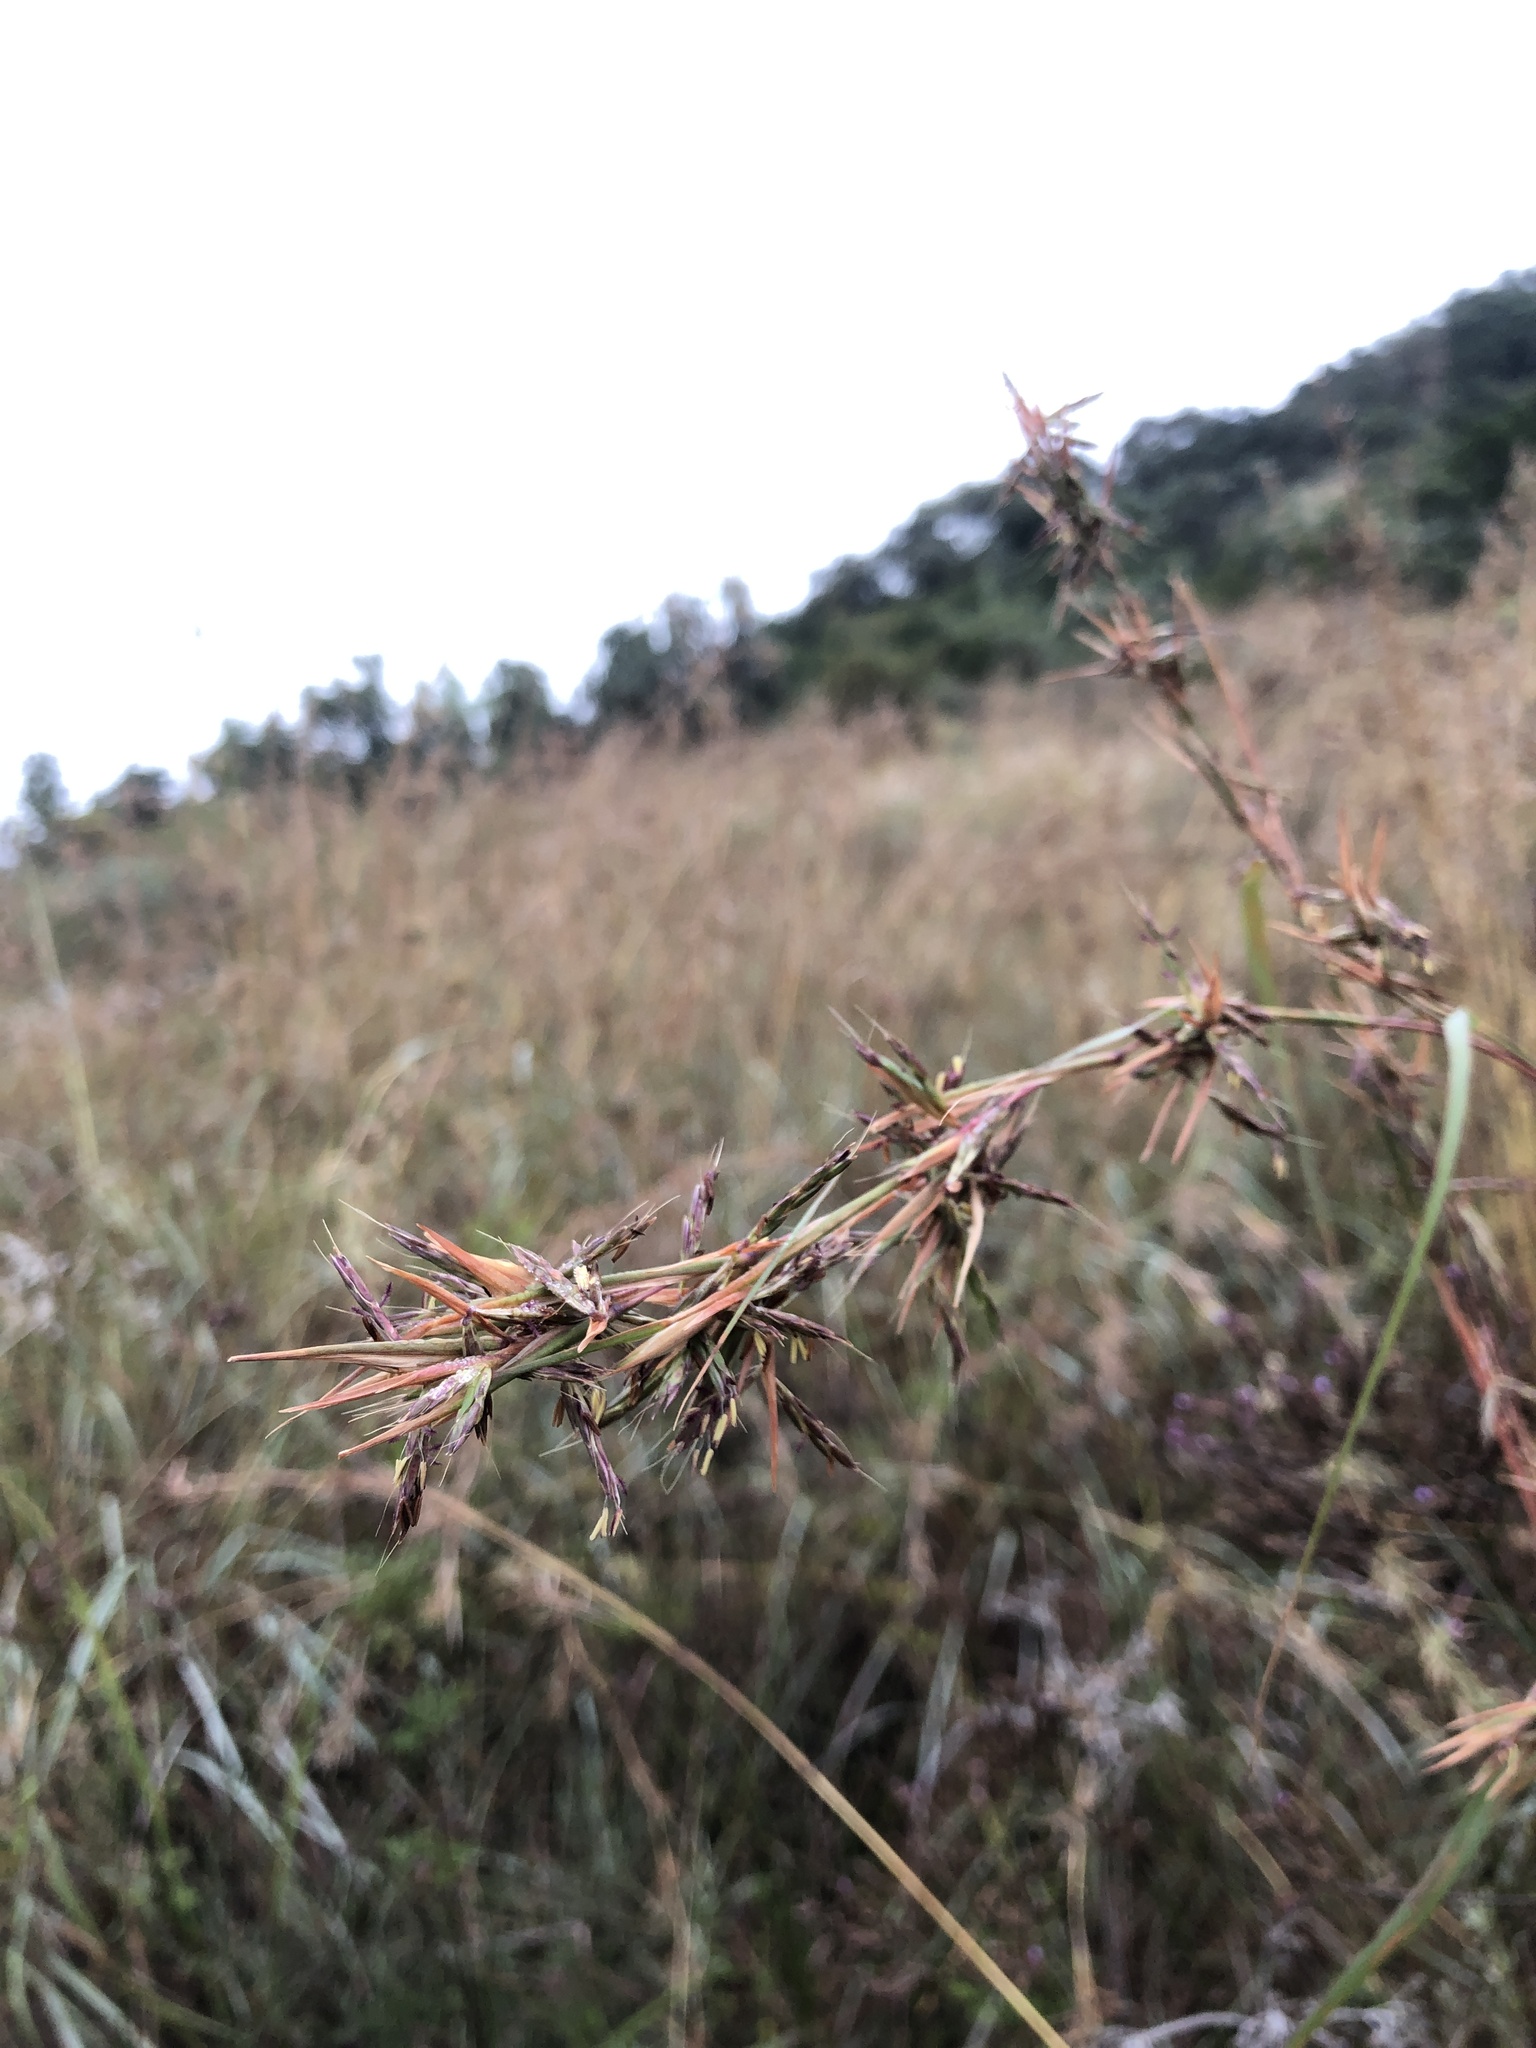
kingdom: Plantae
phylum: Tracheophyta
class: Liliopsida
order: Poales
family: Poaceae
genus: Cymbopogon
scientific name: Cymbopogon pospischilii
